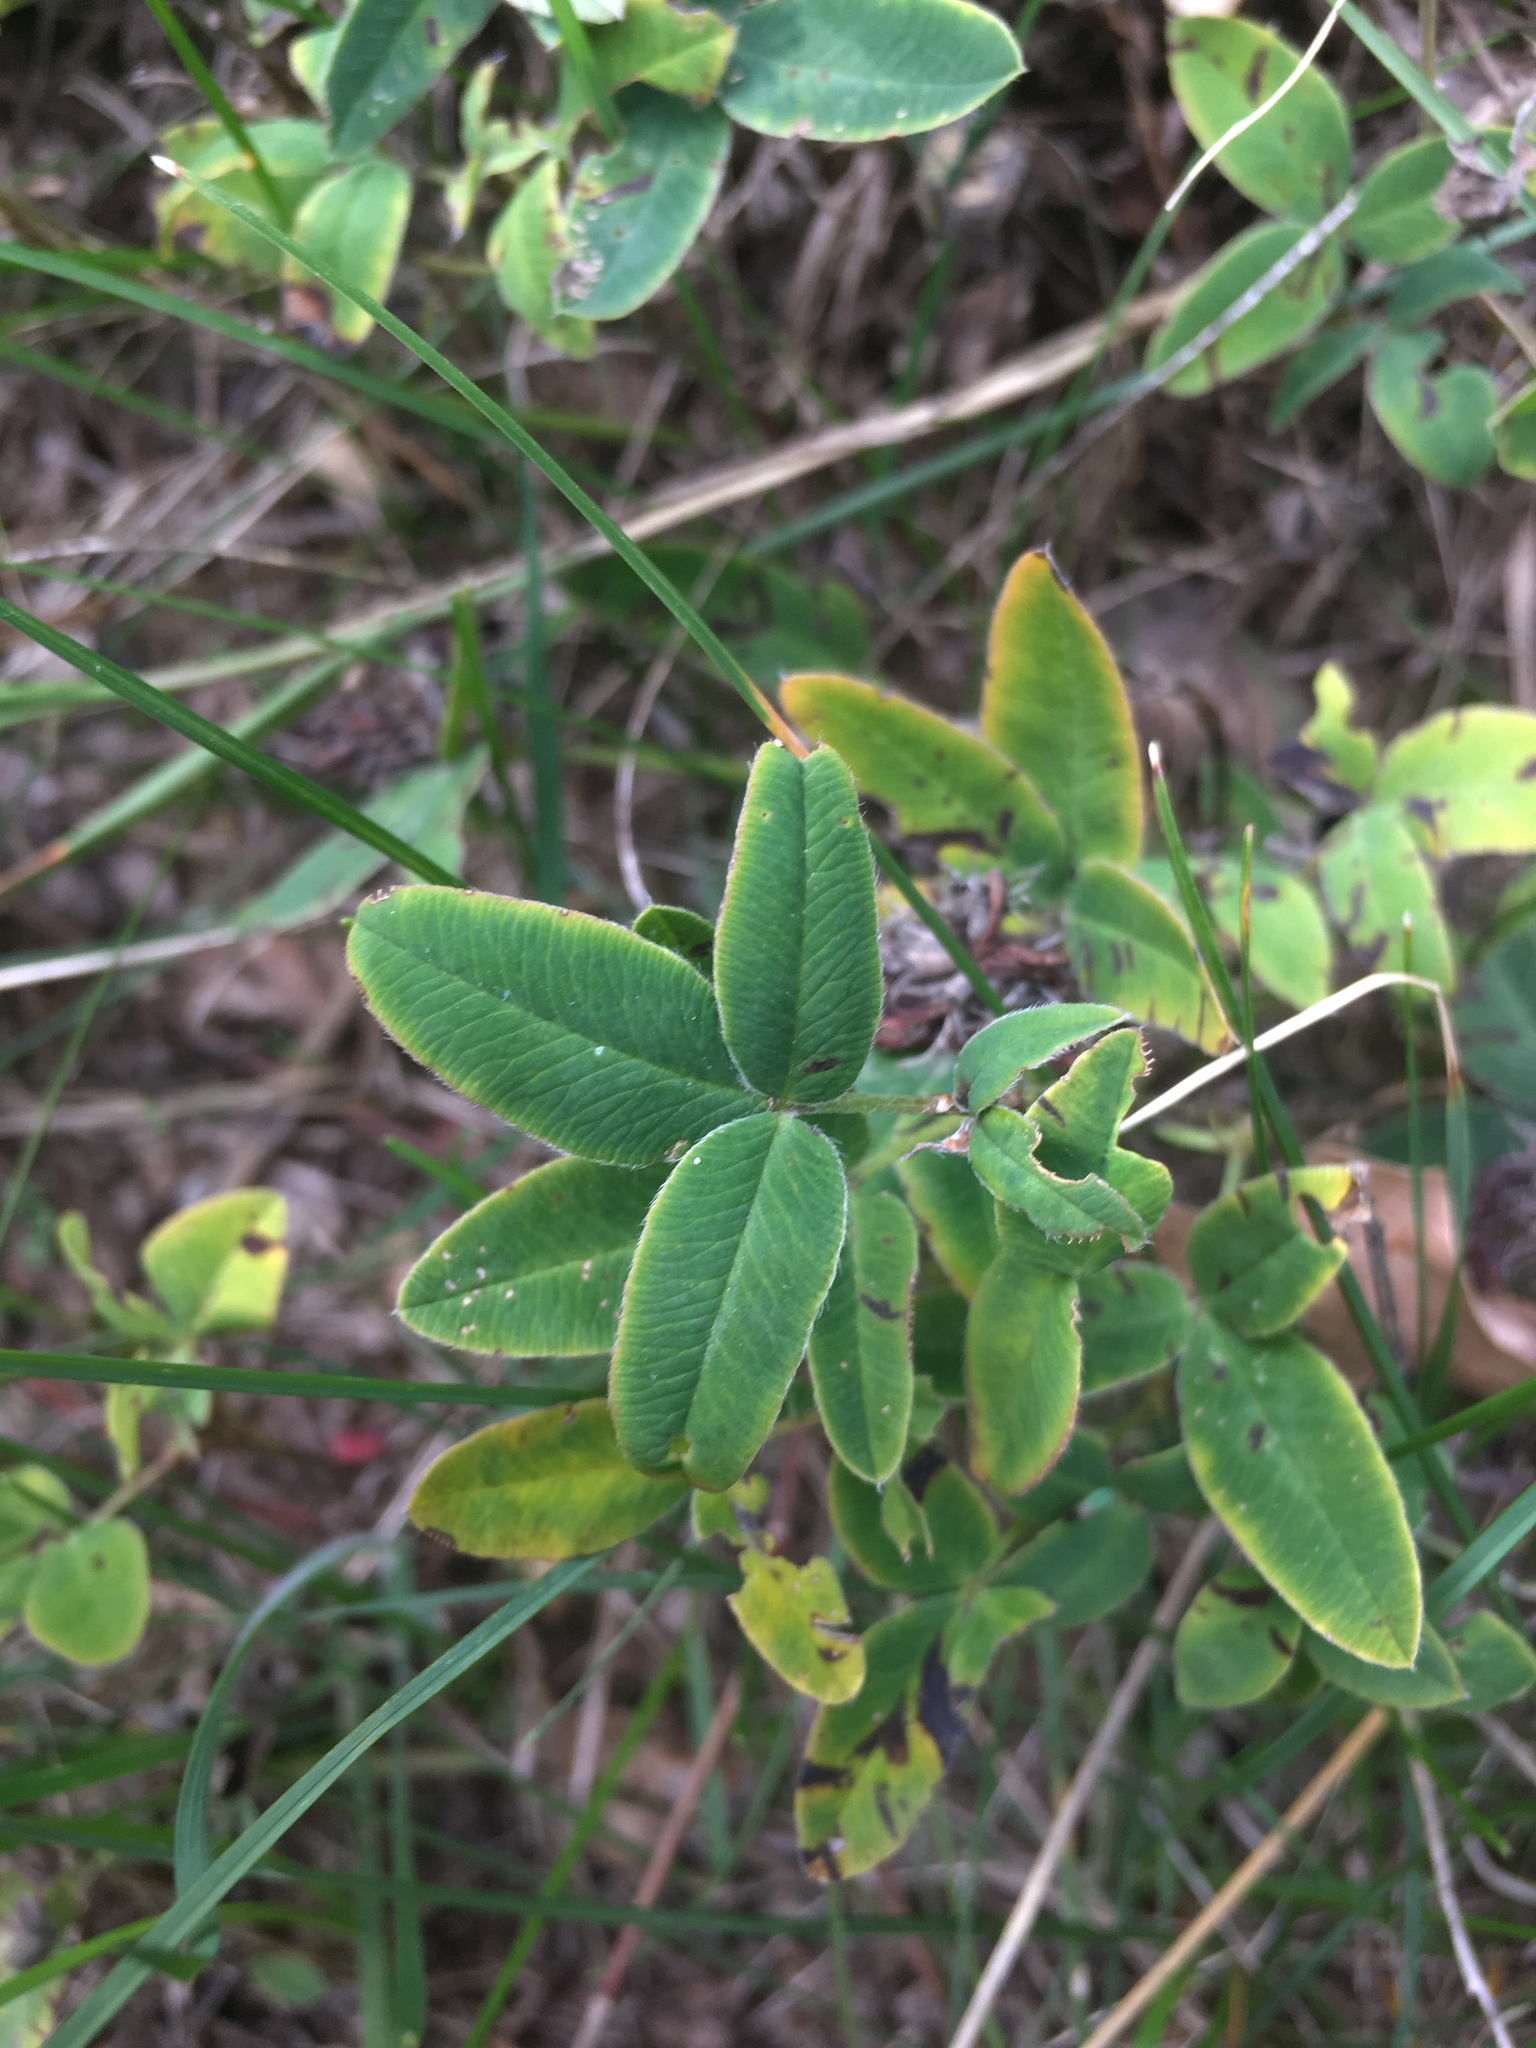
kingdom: Plantae
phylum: Tracheophyta
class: Magnoliopsida
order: Fabales
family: Fabaceae
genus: Trifolium
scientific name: Trifolium medium
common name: Zigzag clover
